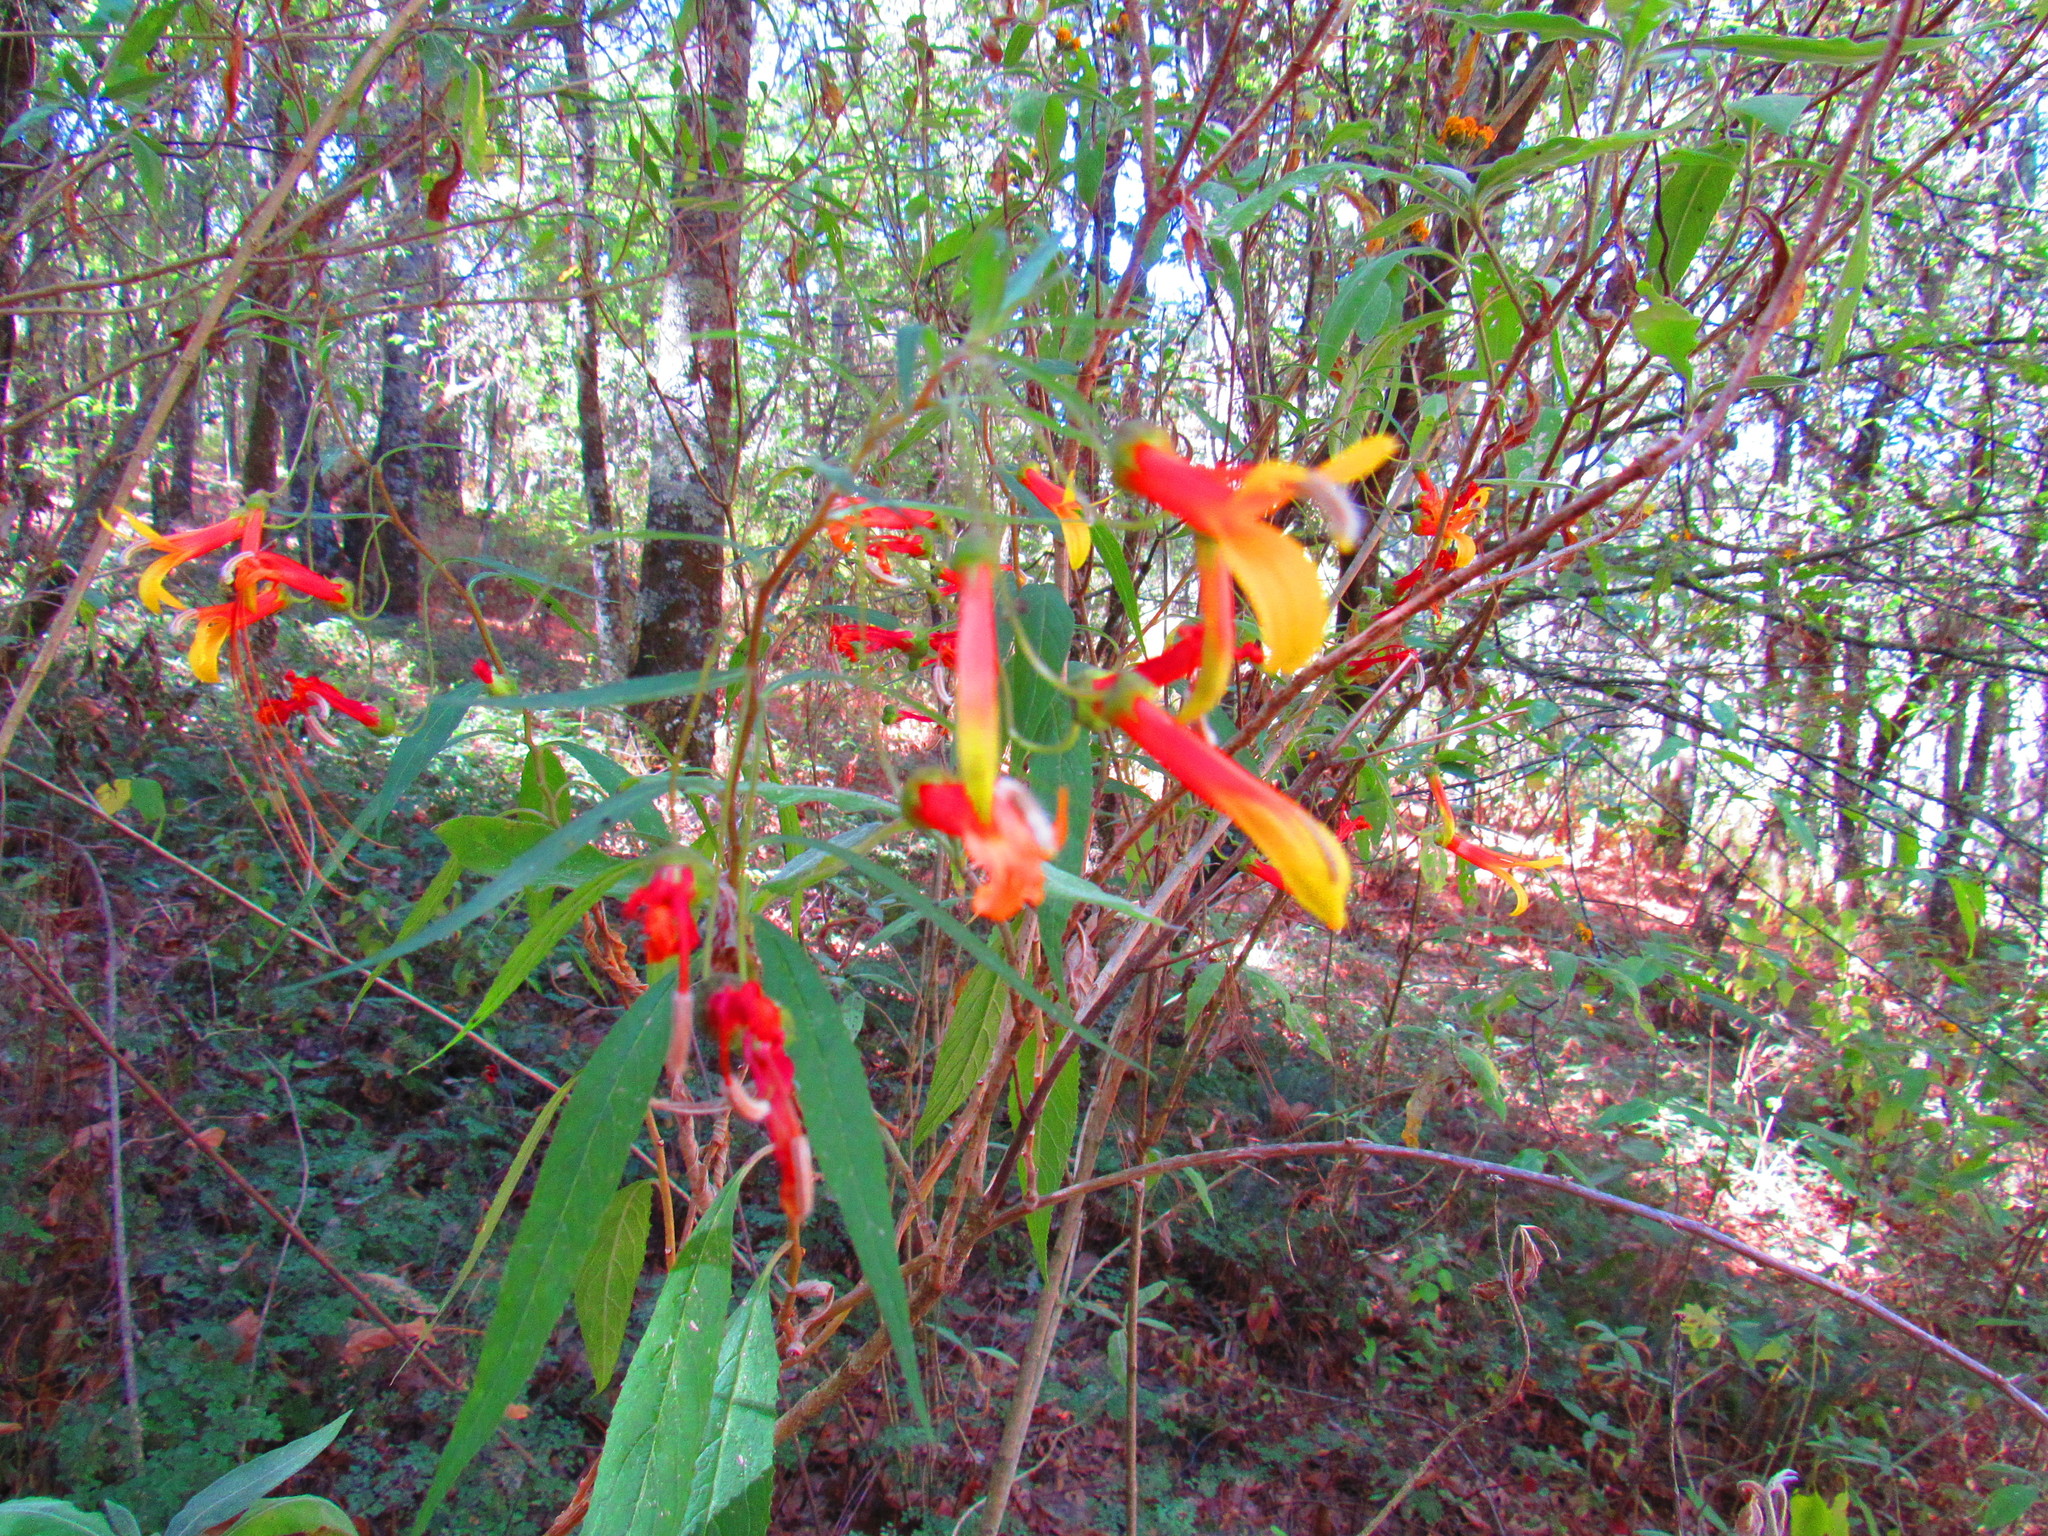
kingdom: Plantae
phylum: Tracheophyta
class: Magnoliopsida
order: Asterales
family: Campanulaceae
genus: Lobelia
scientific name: Lobelia laxiflora
